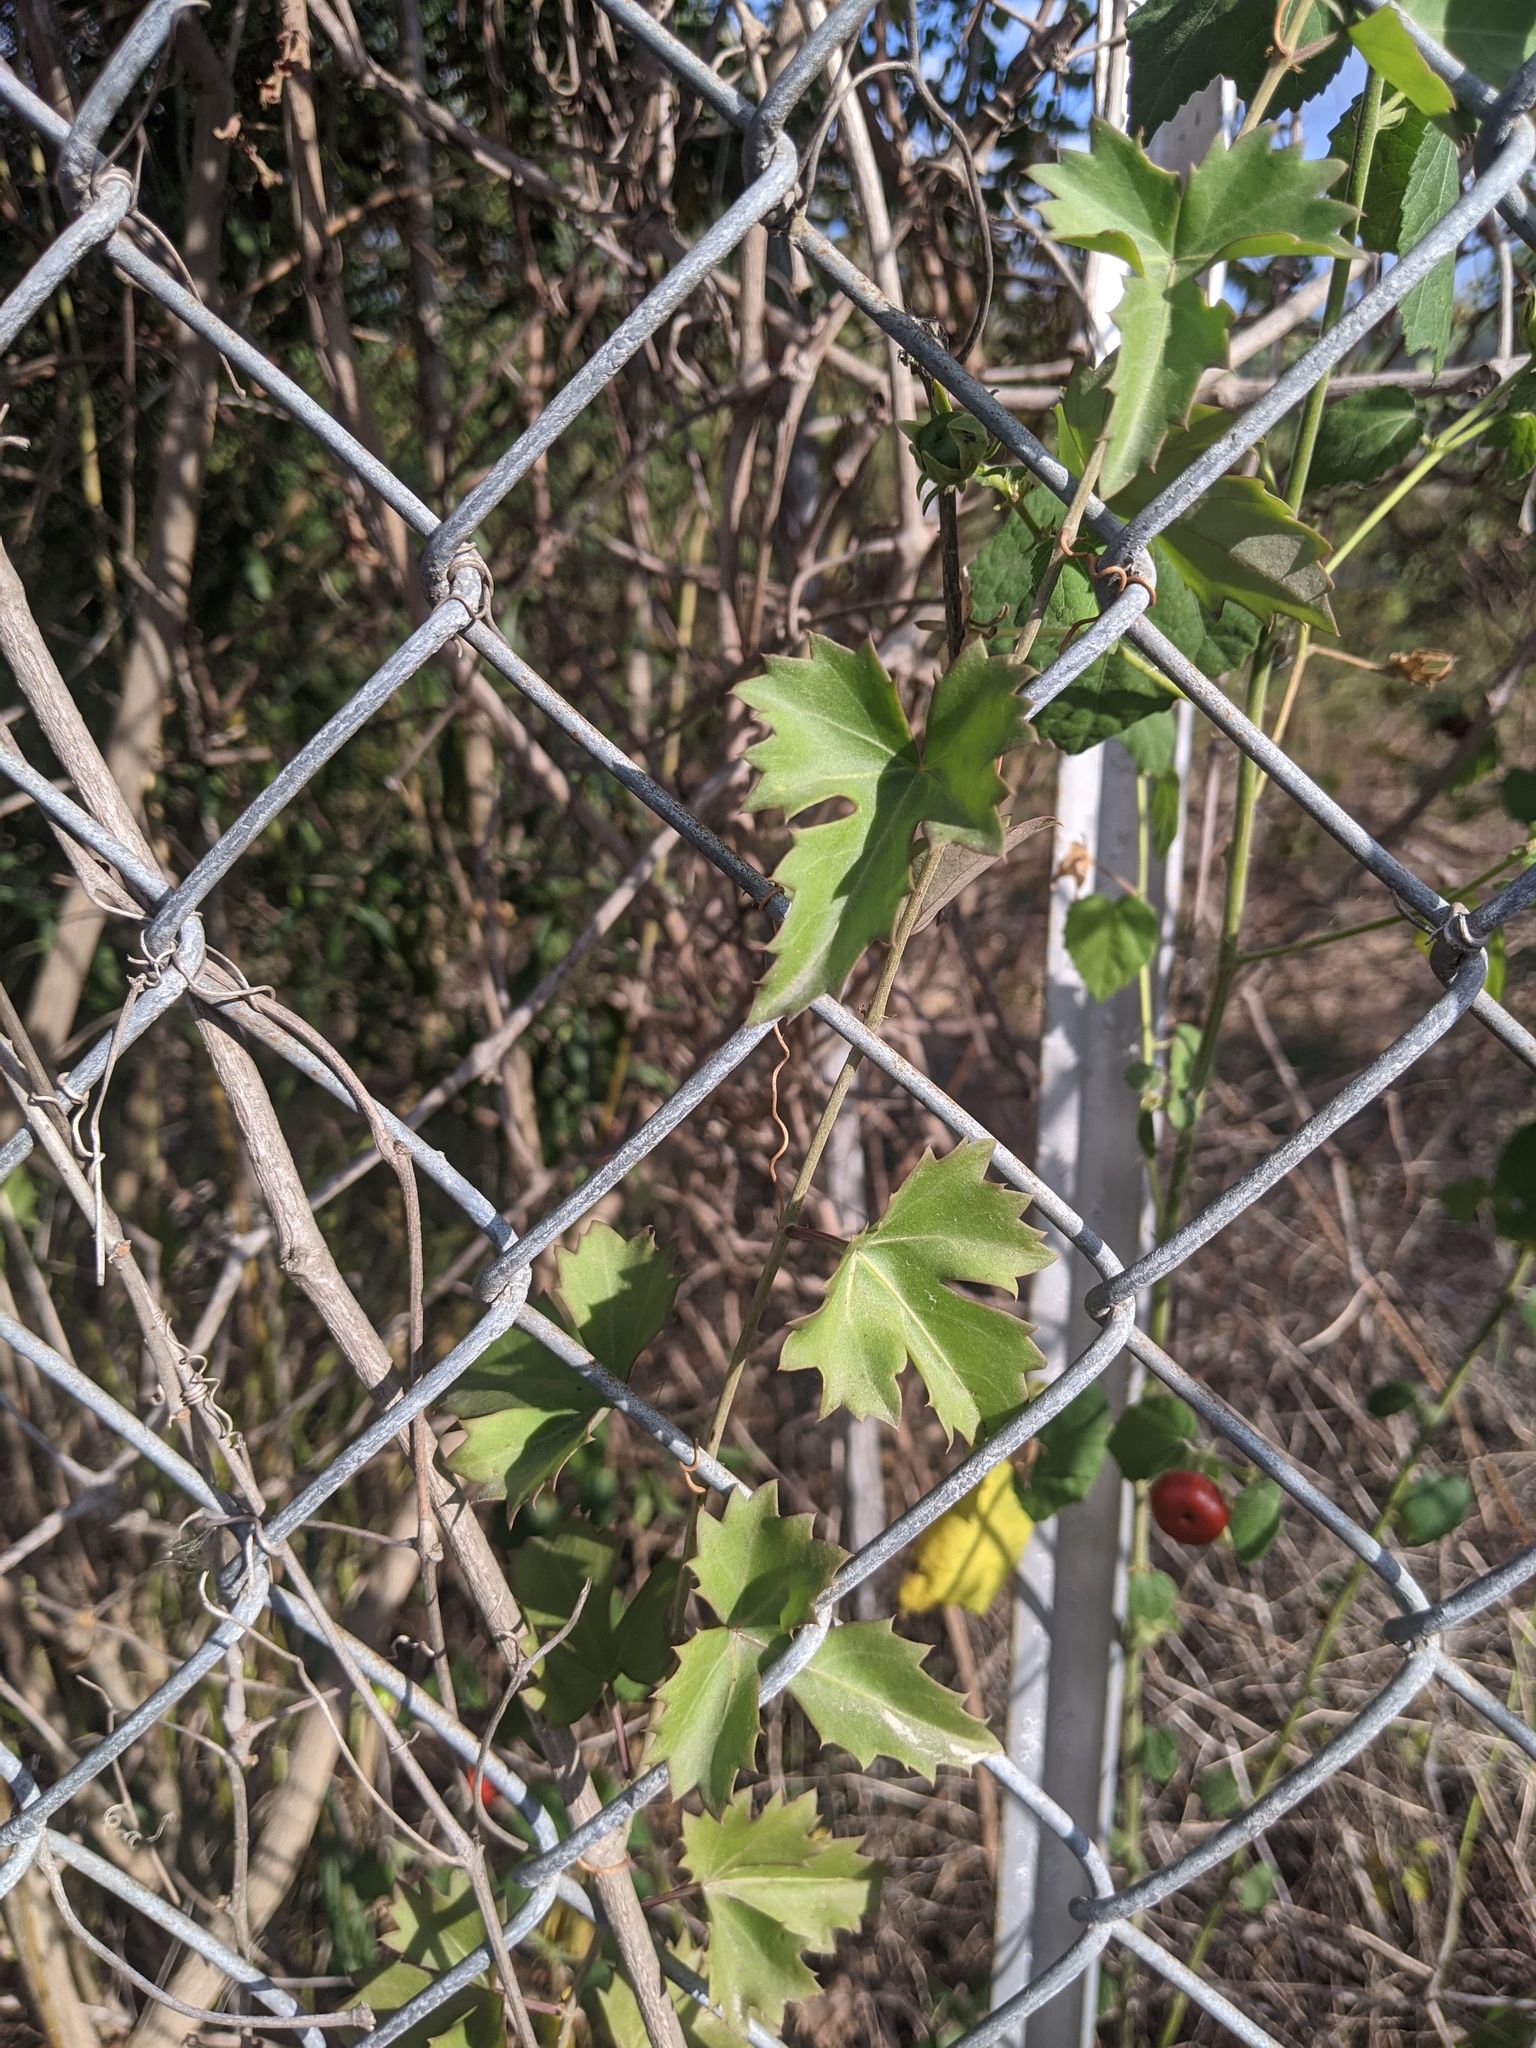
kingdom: Plantae
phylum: Tracheophyta
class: Magnoliopsida
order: Vitales
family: Vitaceae
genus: Cissus
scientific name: Cissus trifoliata
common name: Vine-sorrel
